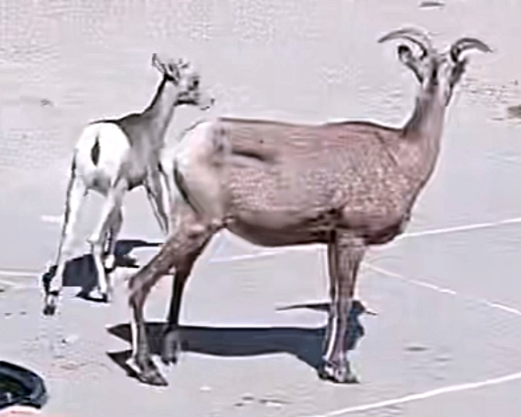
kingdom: Animalia
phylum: Chordata
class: Mammalia
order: Artiodactyla
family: Bovidae
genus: Ovis
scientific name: Ovis canadensis
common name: Bighorn sheep
